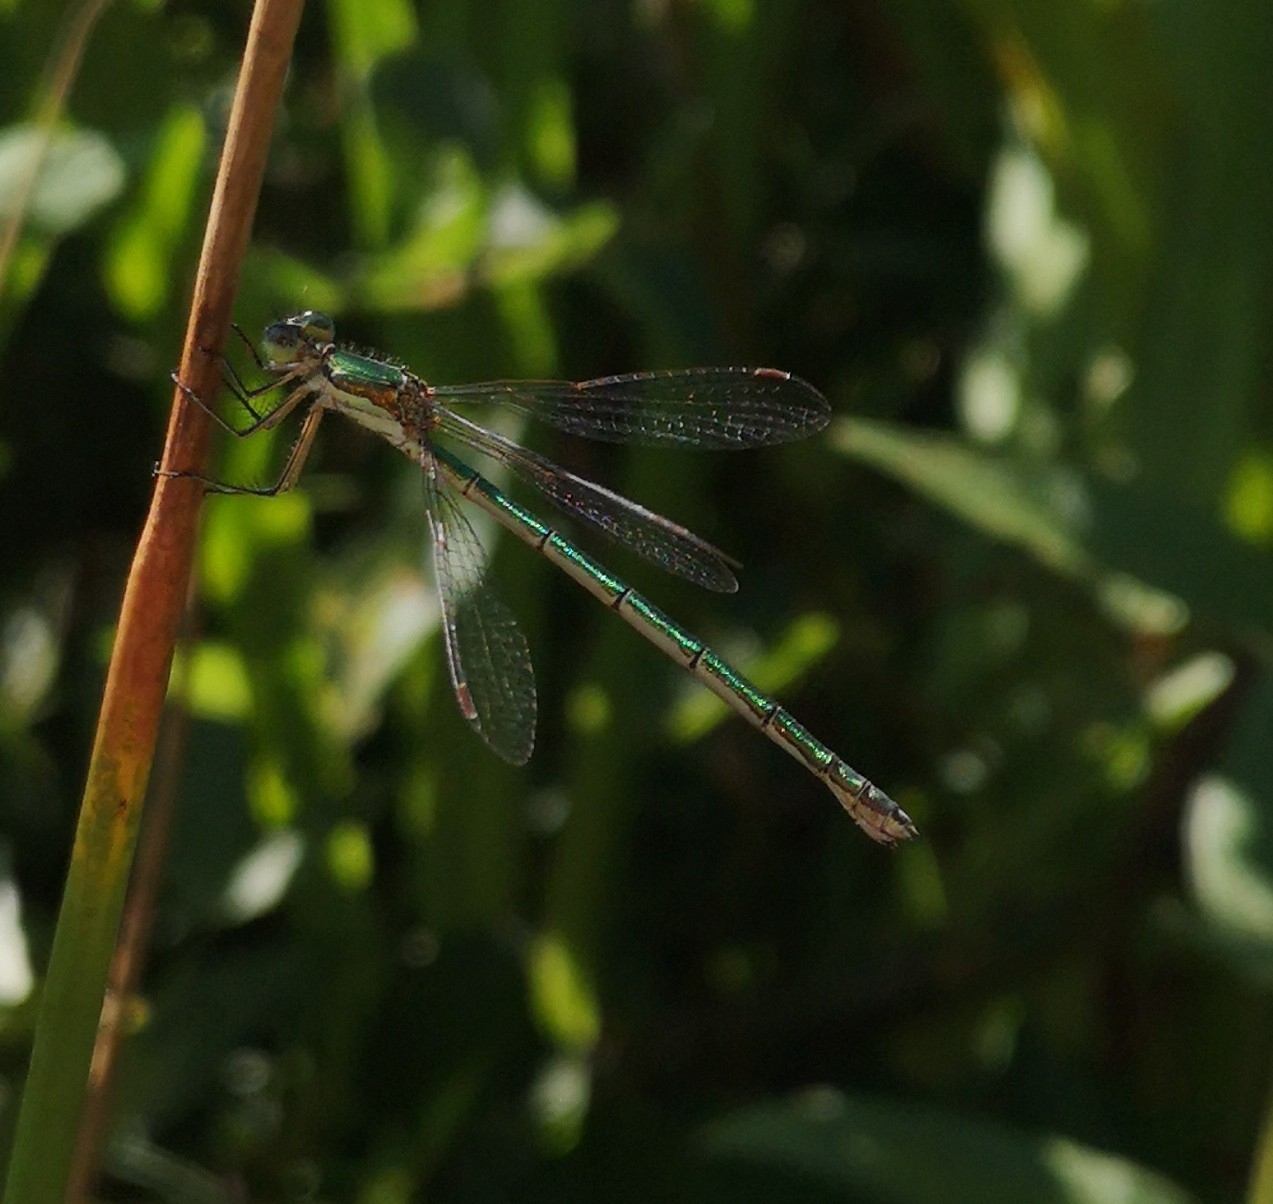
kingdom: Animalia
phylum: Arthropoda
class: Insecta
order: Odonata
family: Lestidae
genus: Lestes
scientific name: Lestes virens
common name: Small emerald spreadwing
